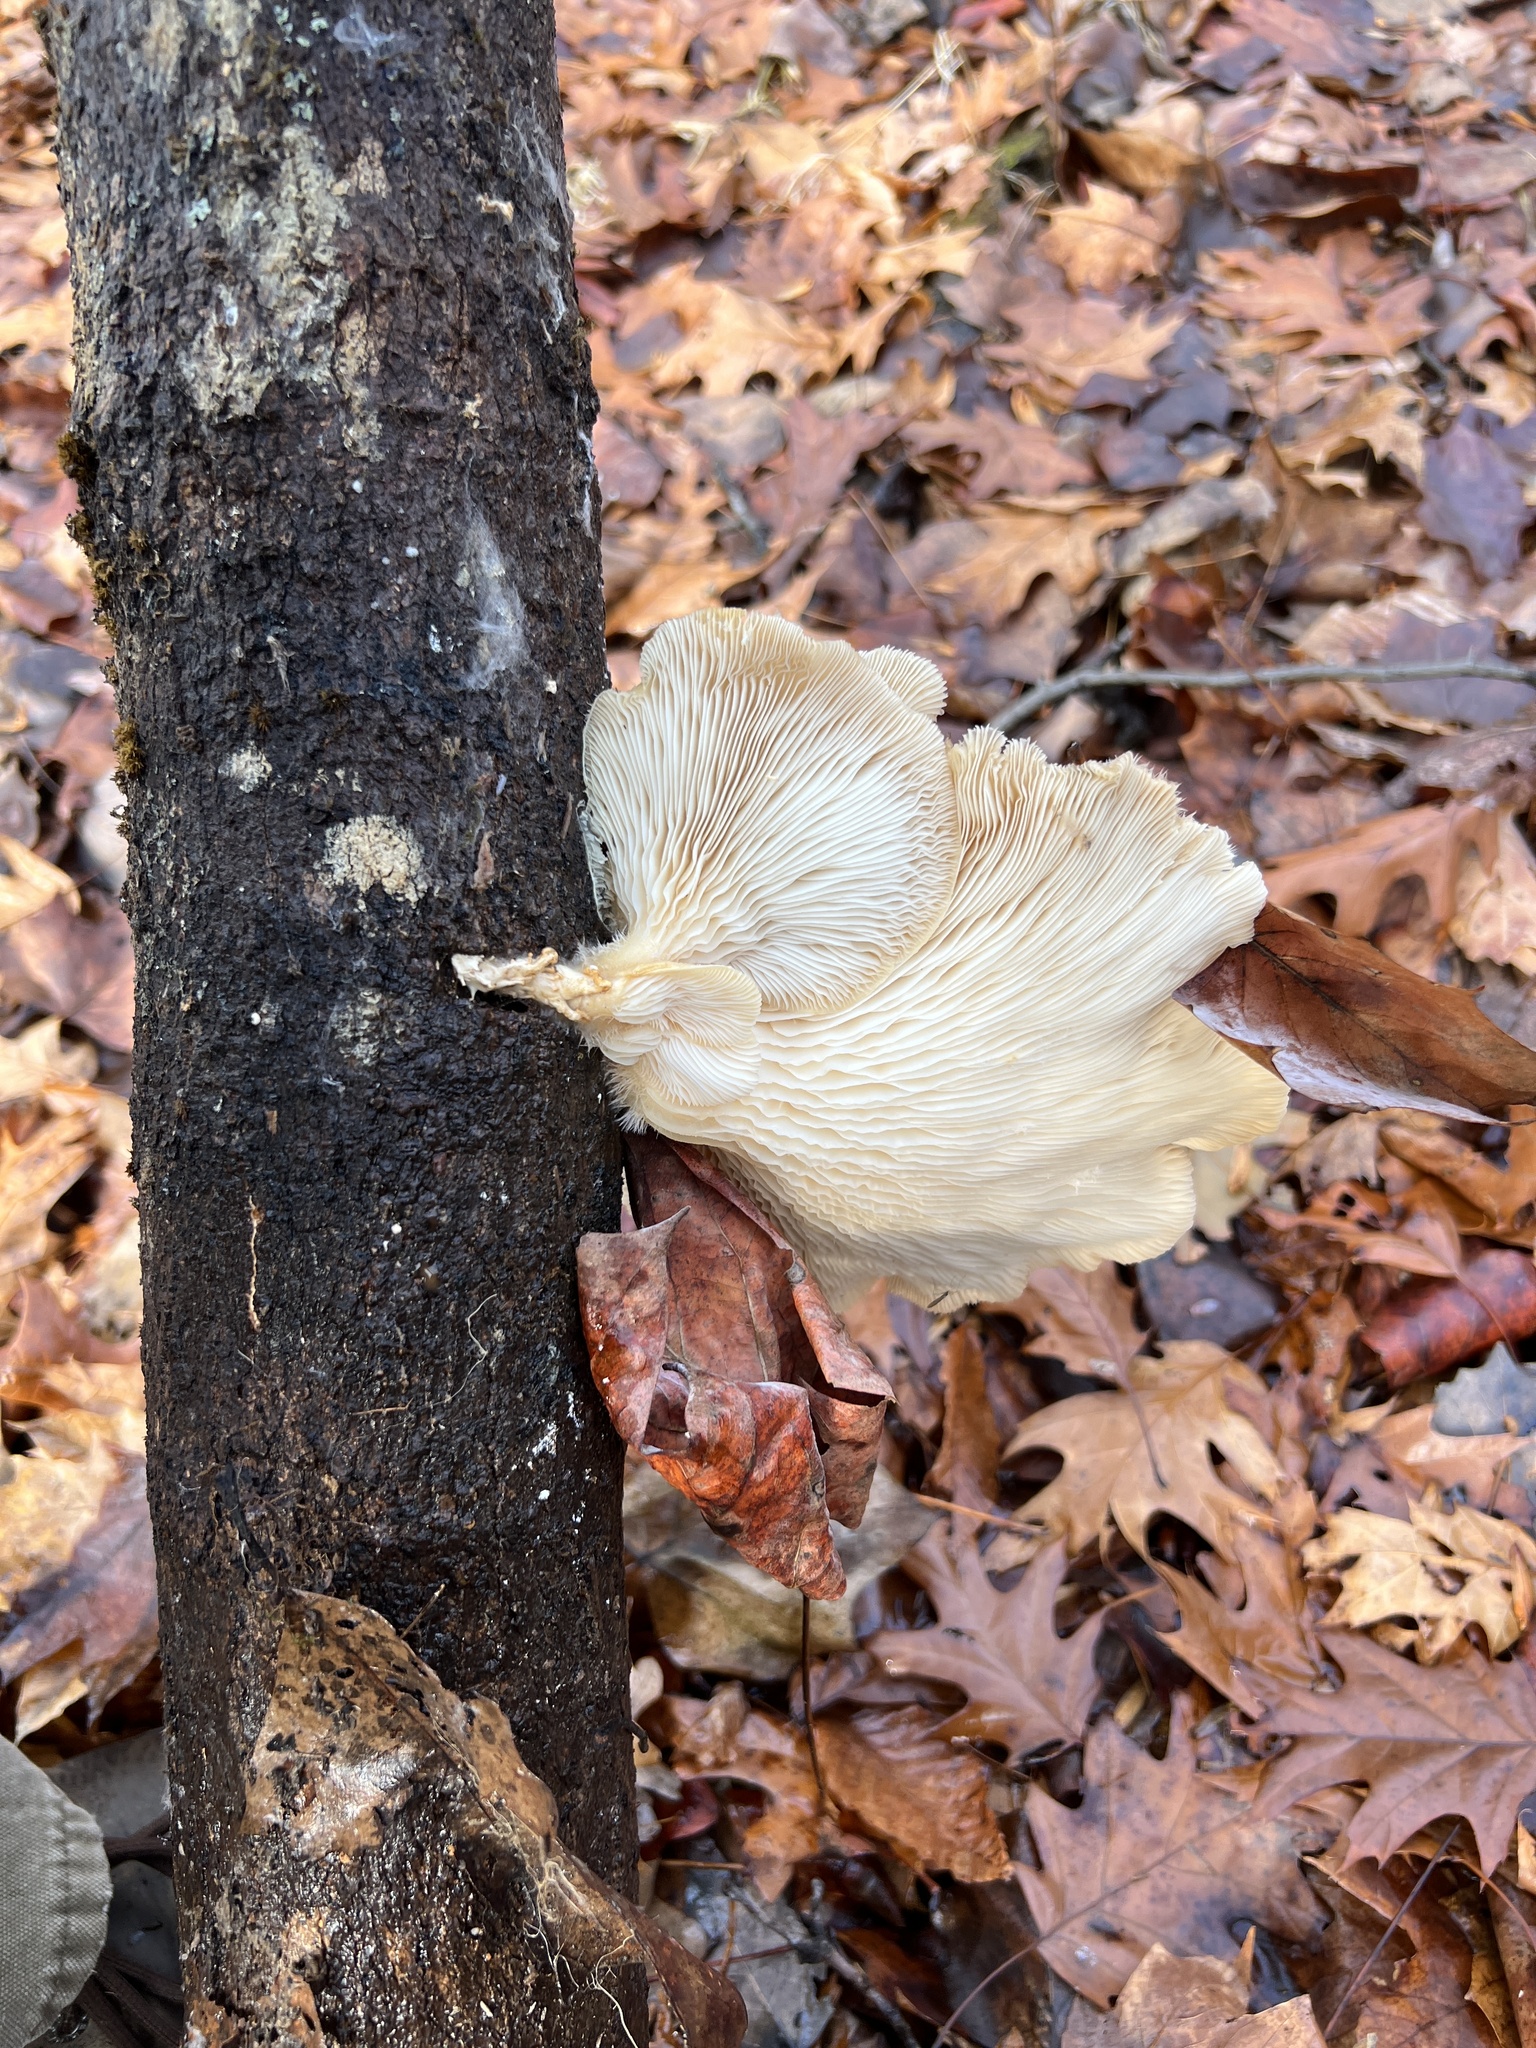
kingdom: Fungi
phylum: Basidiomycota
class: Agaricomycetes
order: Agaricales
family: Pleurotaceae
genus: Pleurotus
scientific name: Pleurotus pulmonarius
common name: Pale oyster
